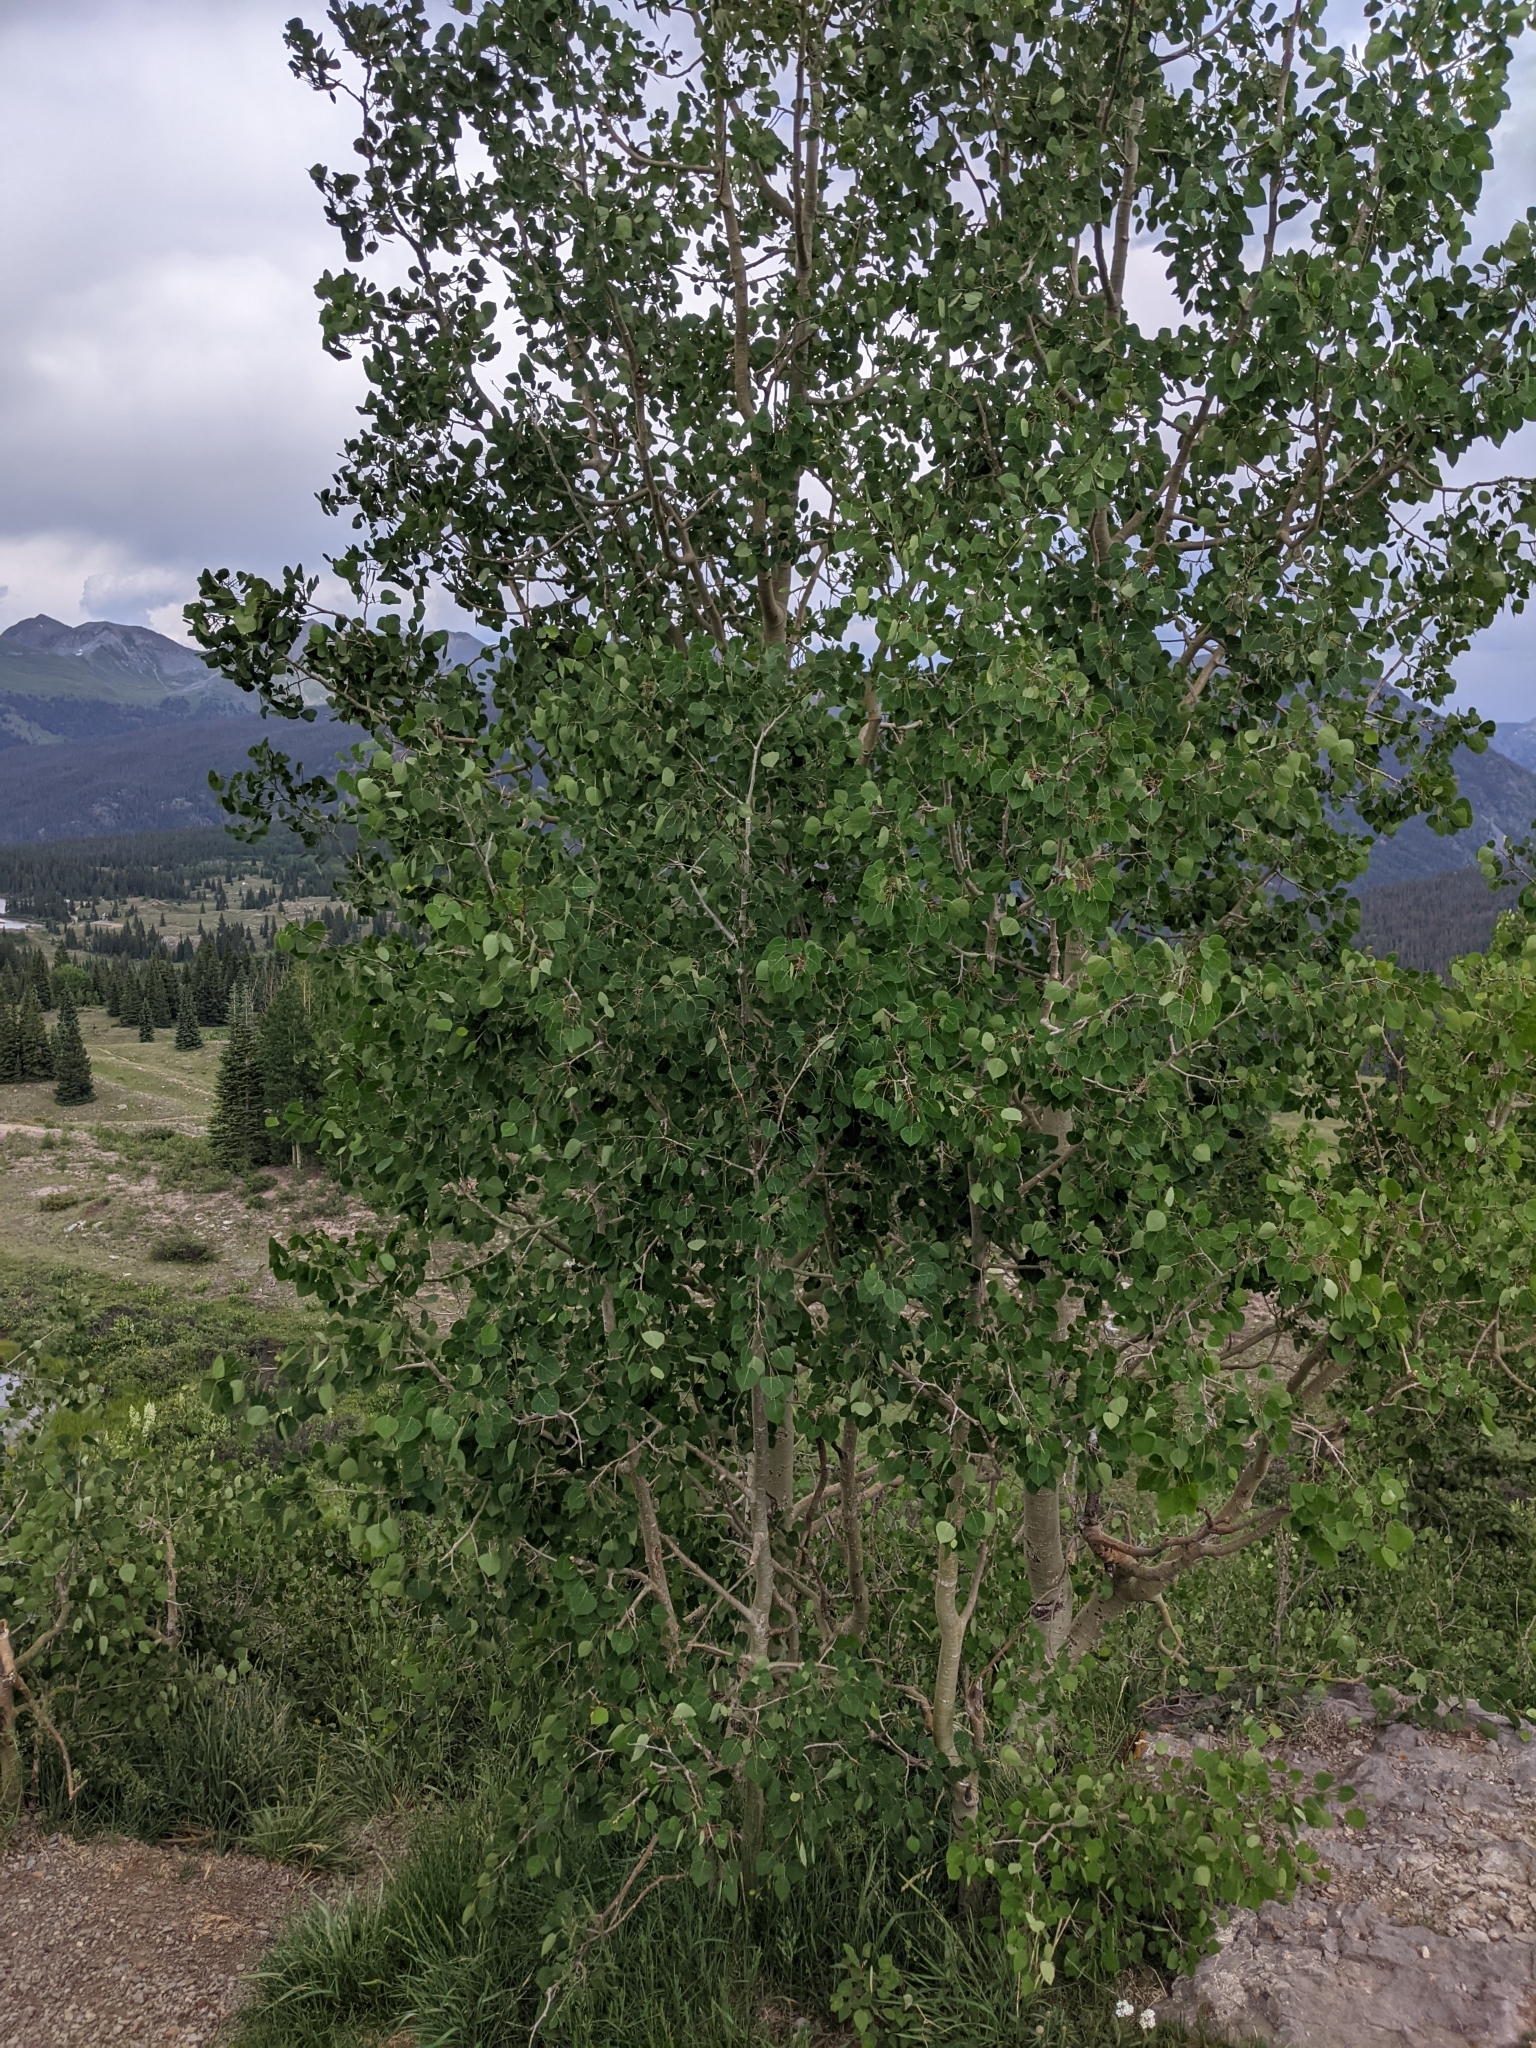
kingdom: Plantae
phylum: Tracheophyta
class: Magnoliopsida
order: Malpighiales
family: Salicaceae
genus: Populus
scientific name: Populus tremuloides
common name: Quaking aspen
